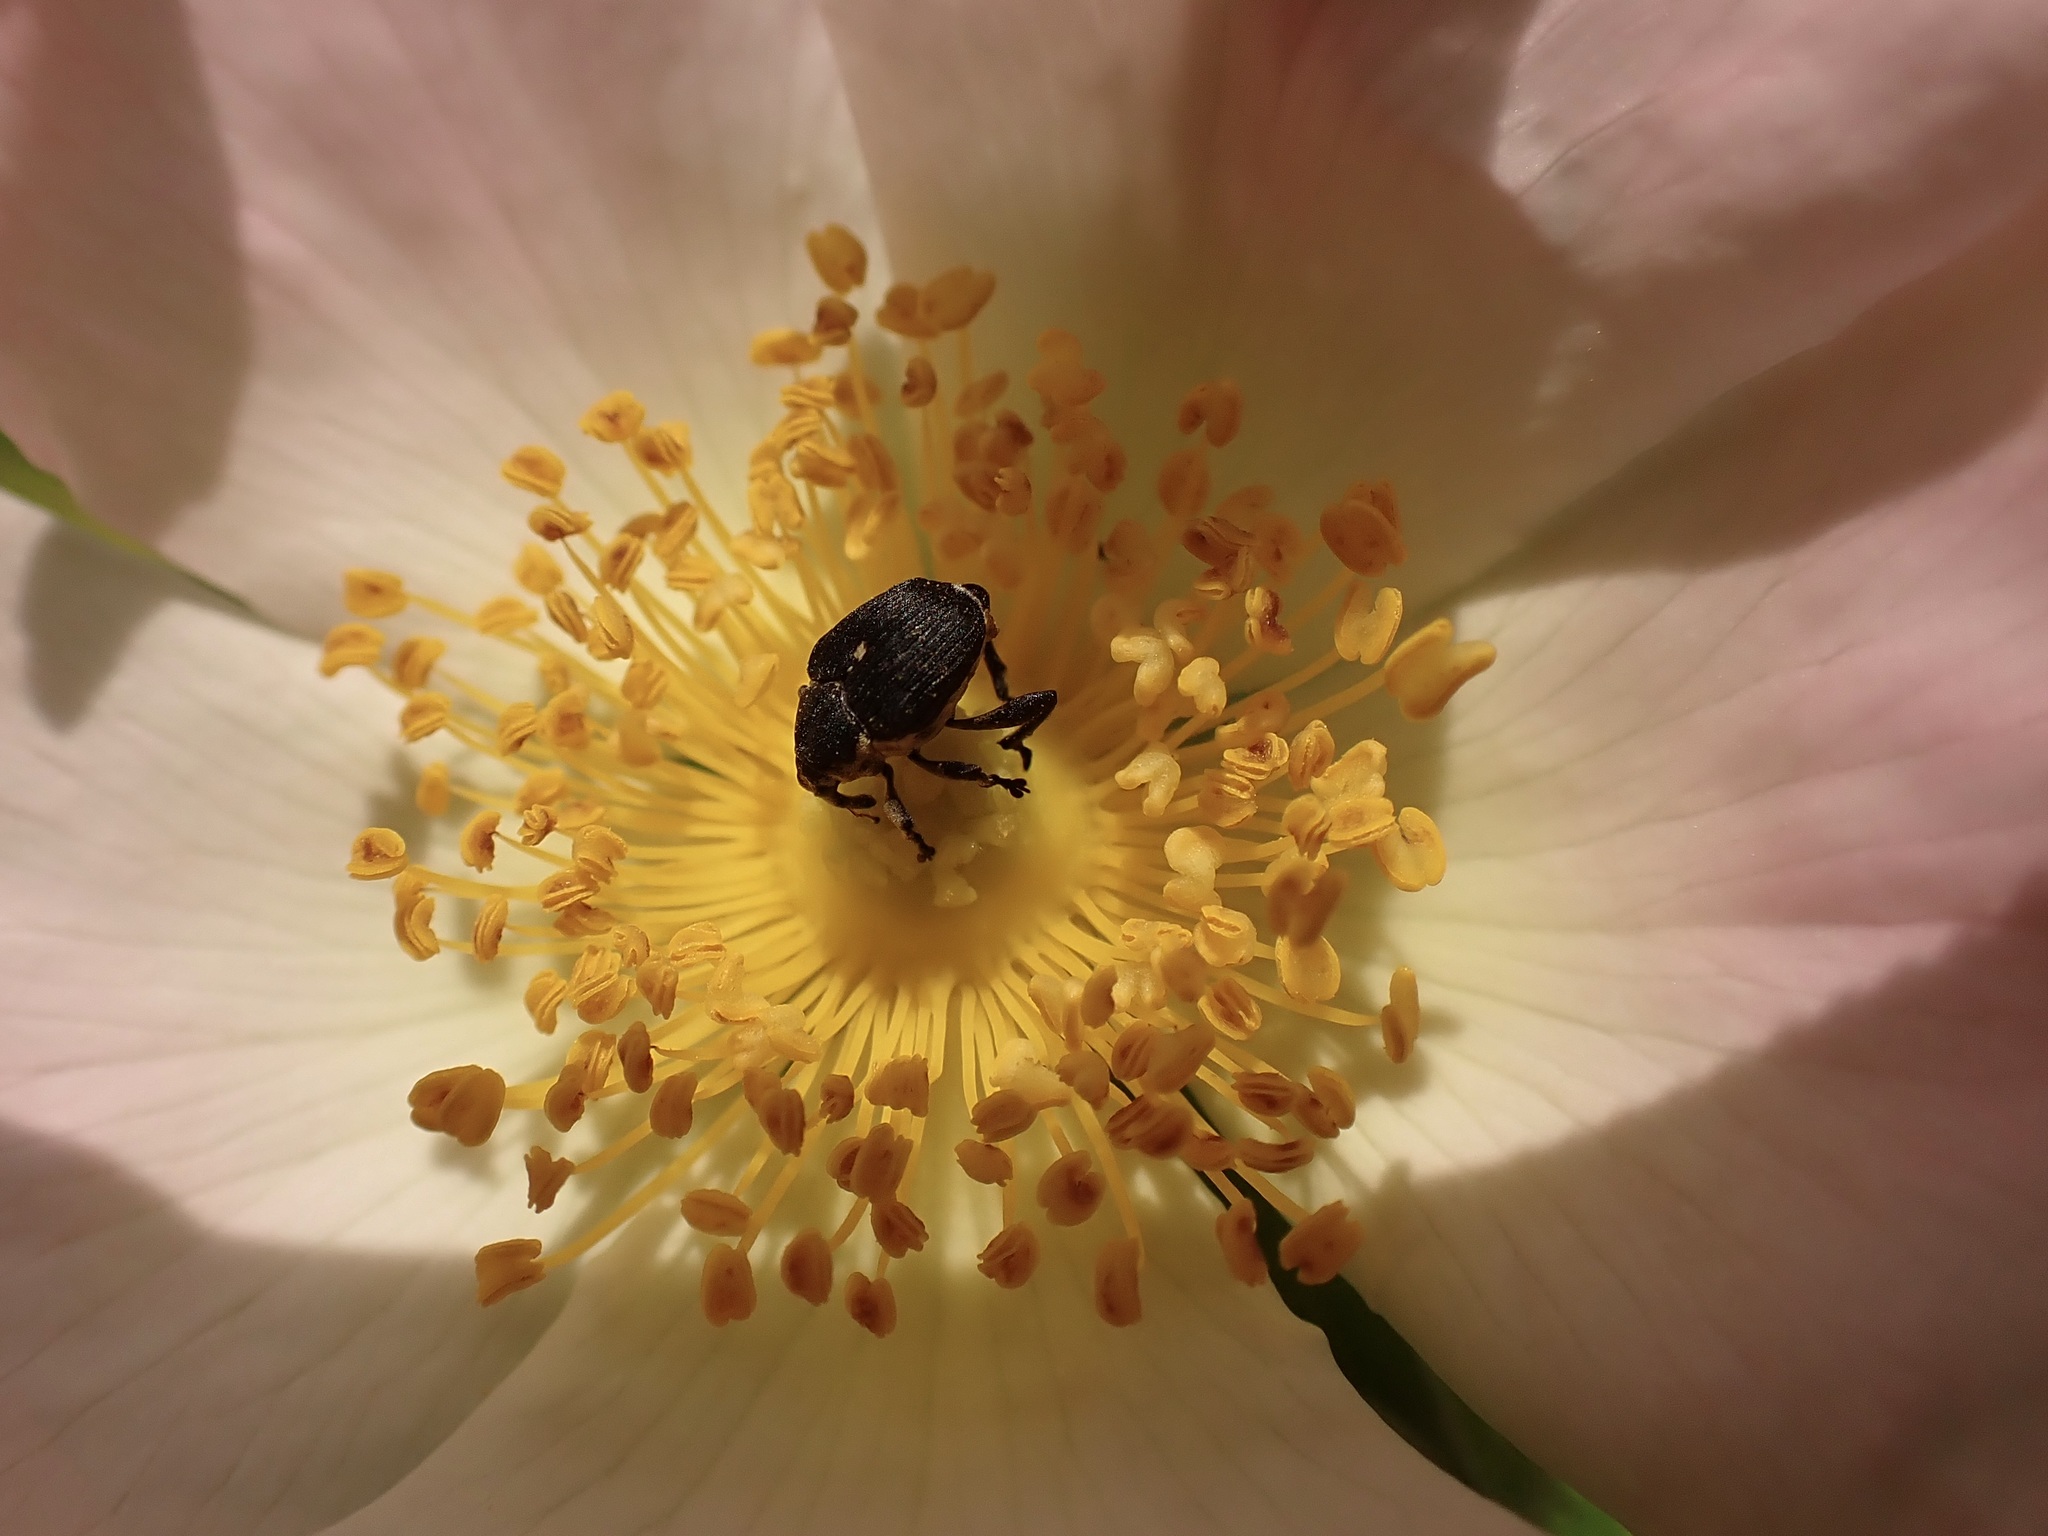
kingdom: Animalia
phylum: Arthropoda
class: Insecta
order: Coleoptera
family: Curculionidae
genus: Mononychus
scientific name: Mononychus punctumalbum
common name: Iris weevil
